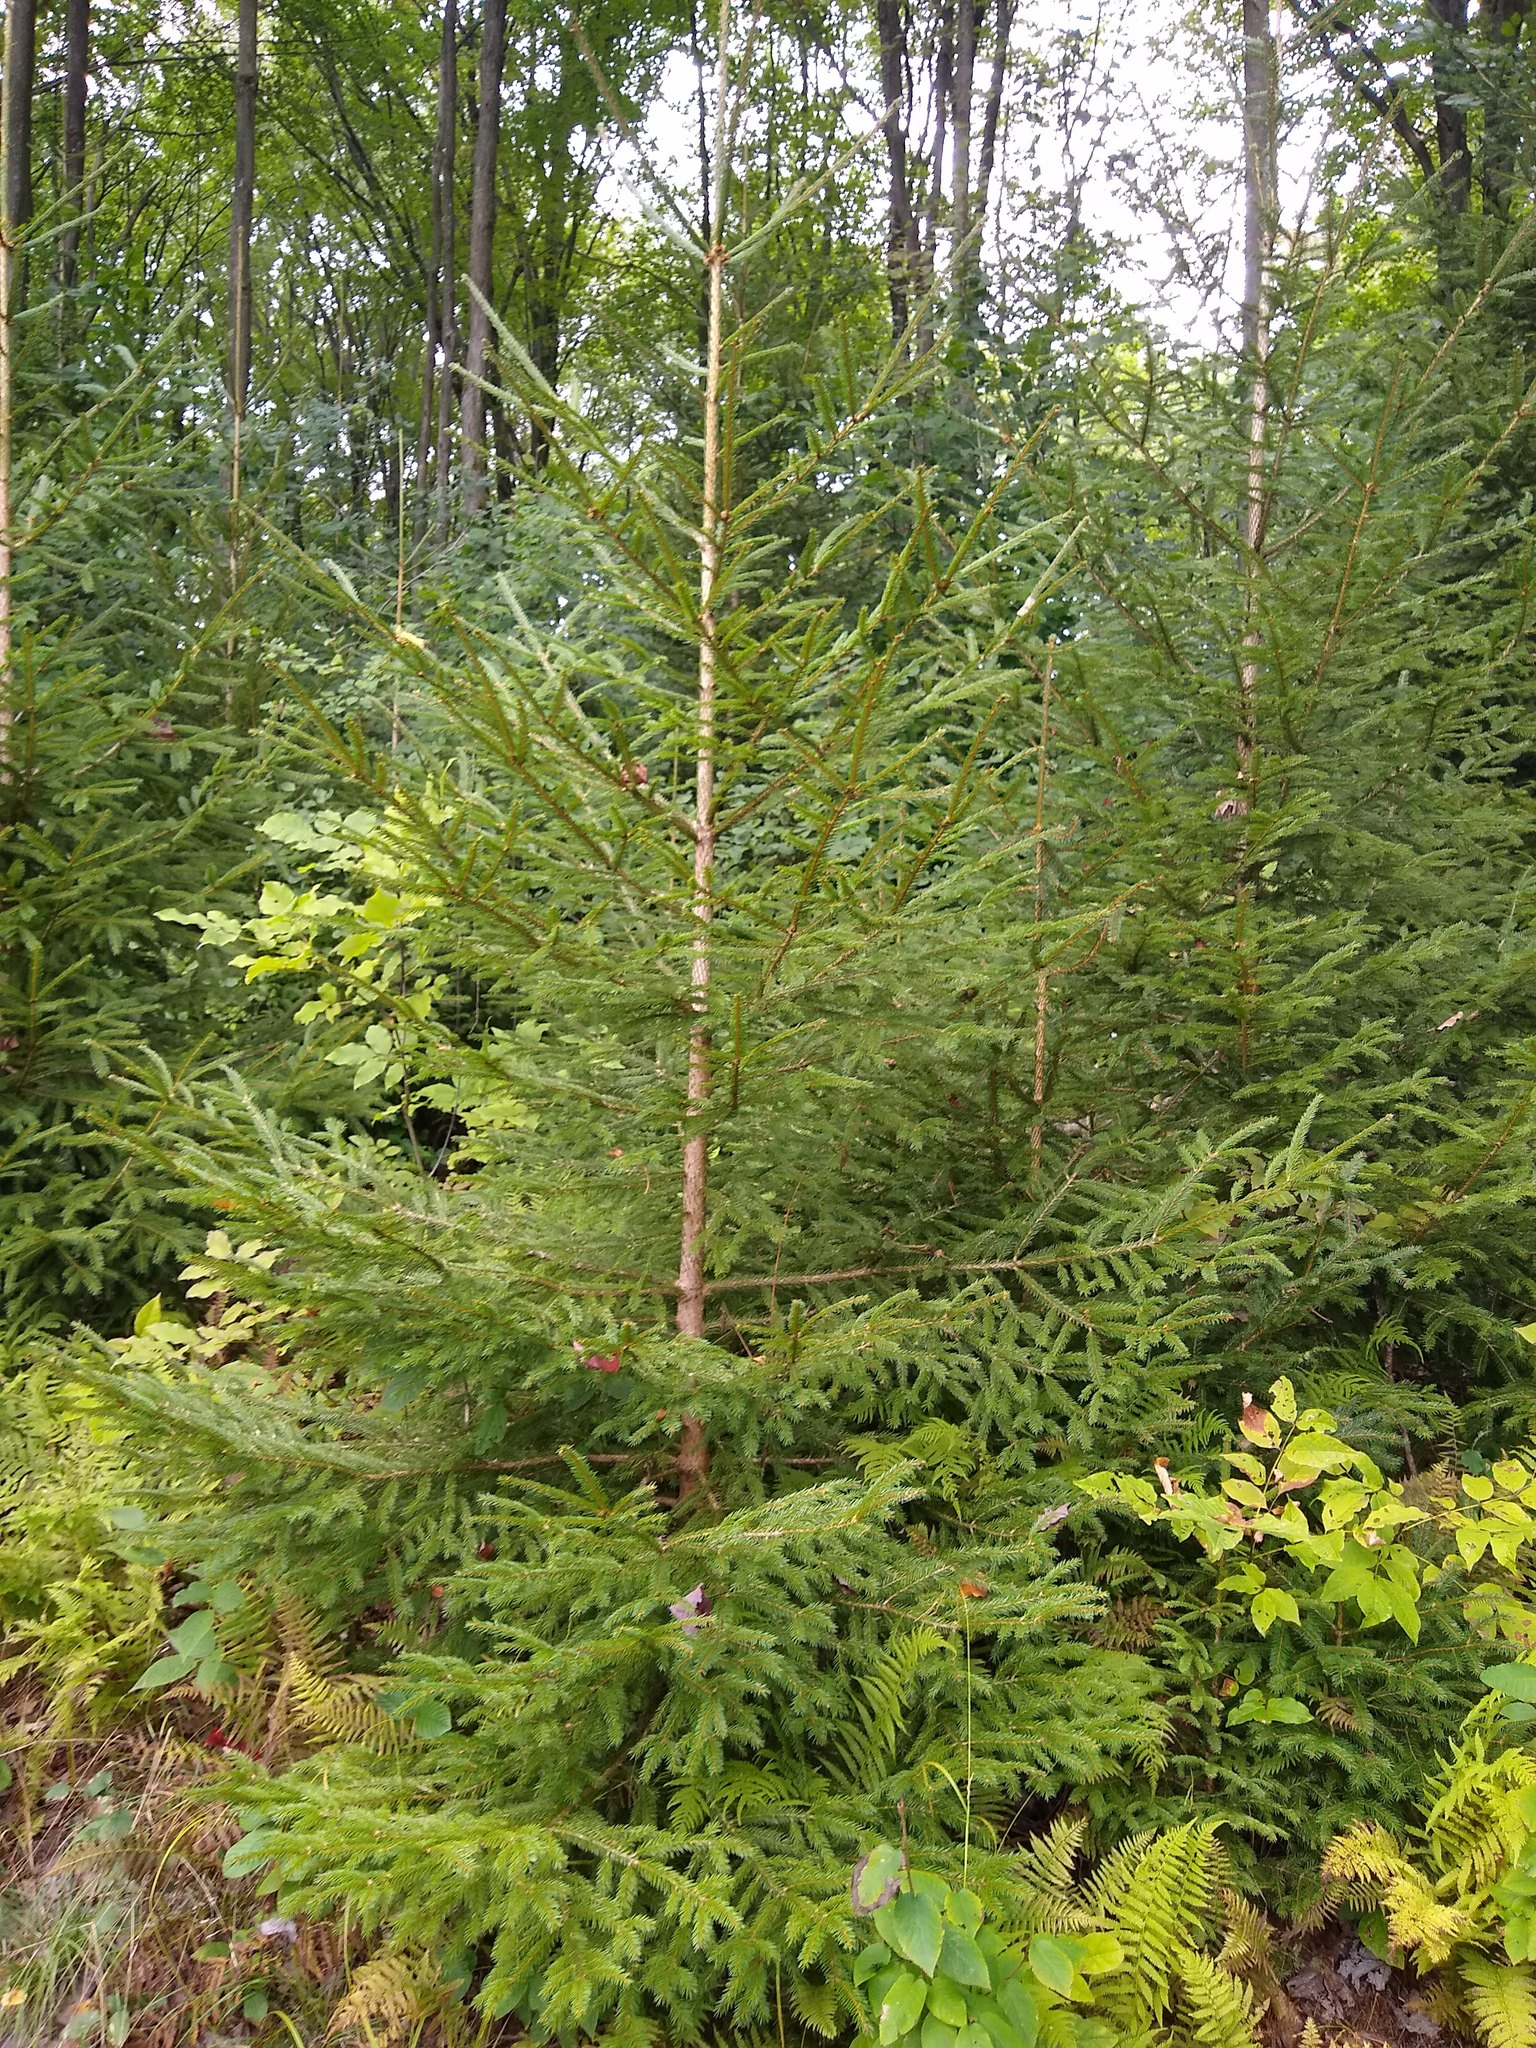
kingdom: Plantae
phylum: Tracheophyta
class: Pinopsida
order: Pinales
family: Pinaceae
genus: Picea
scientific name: Picea abies
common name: Norway spruce
